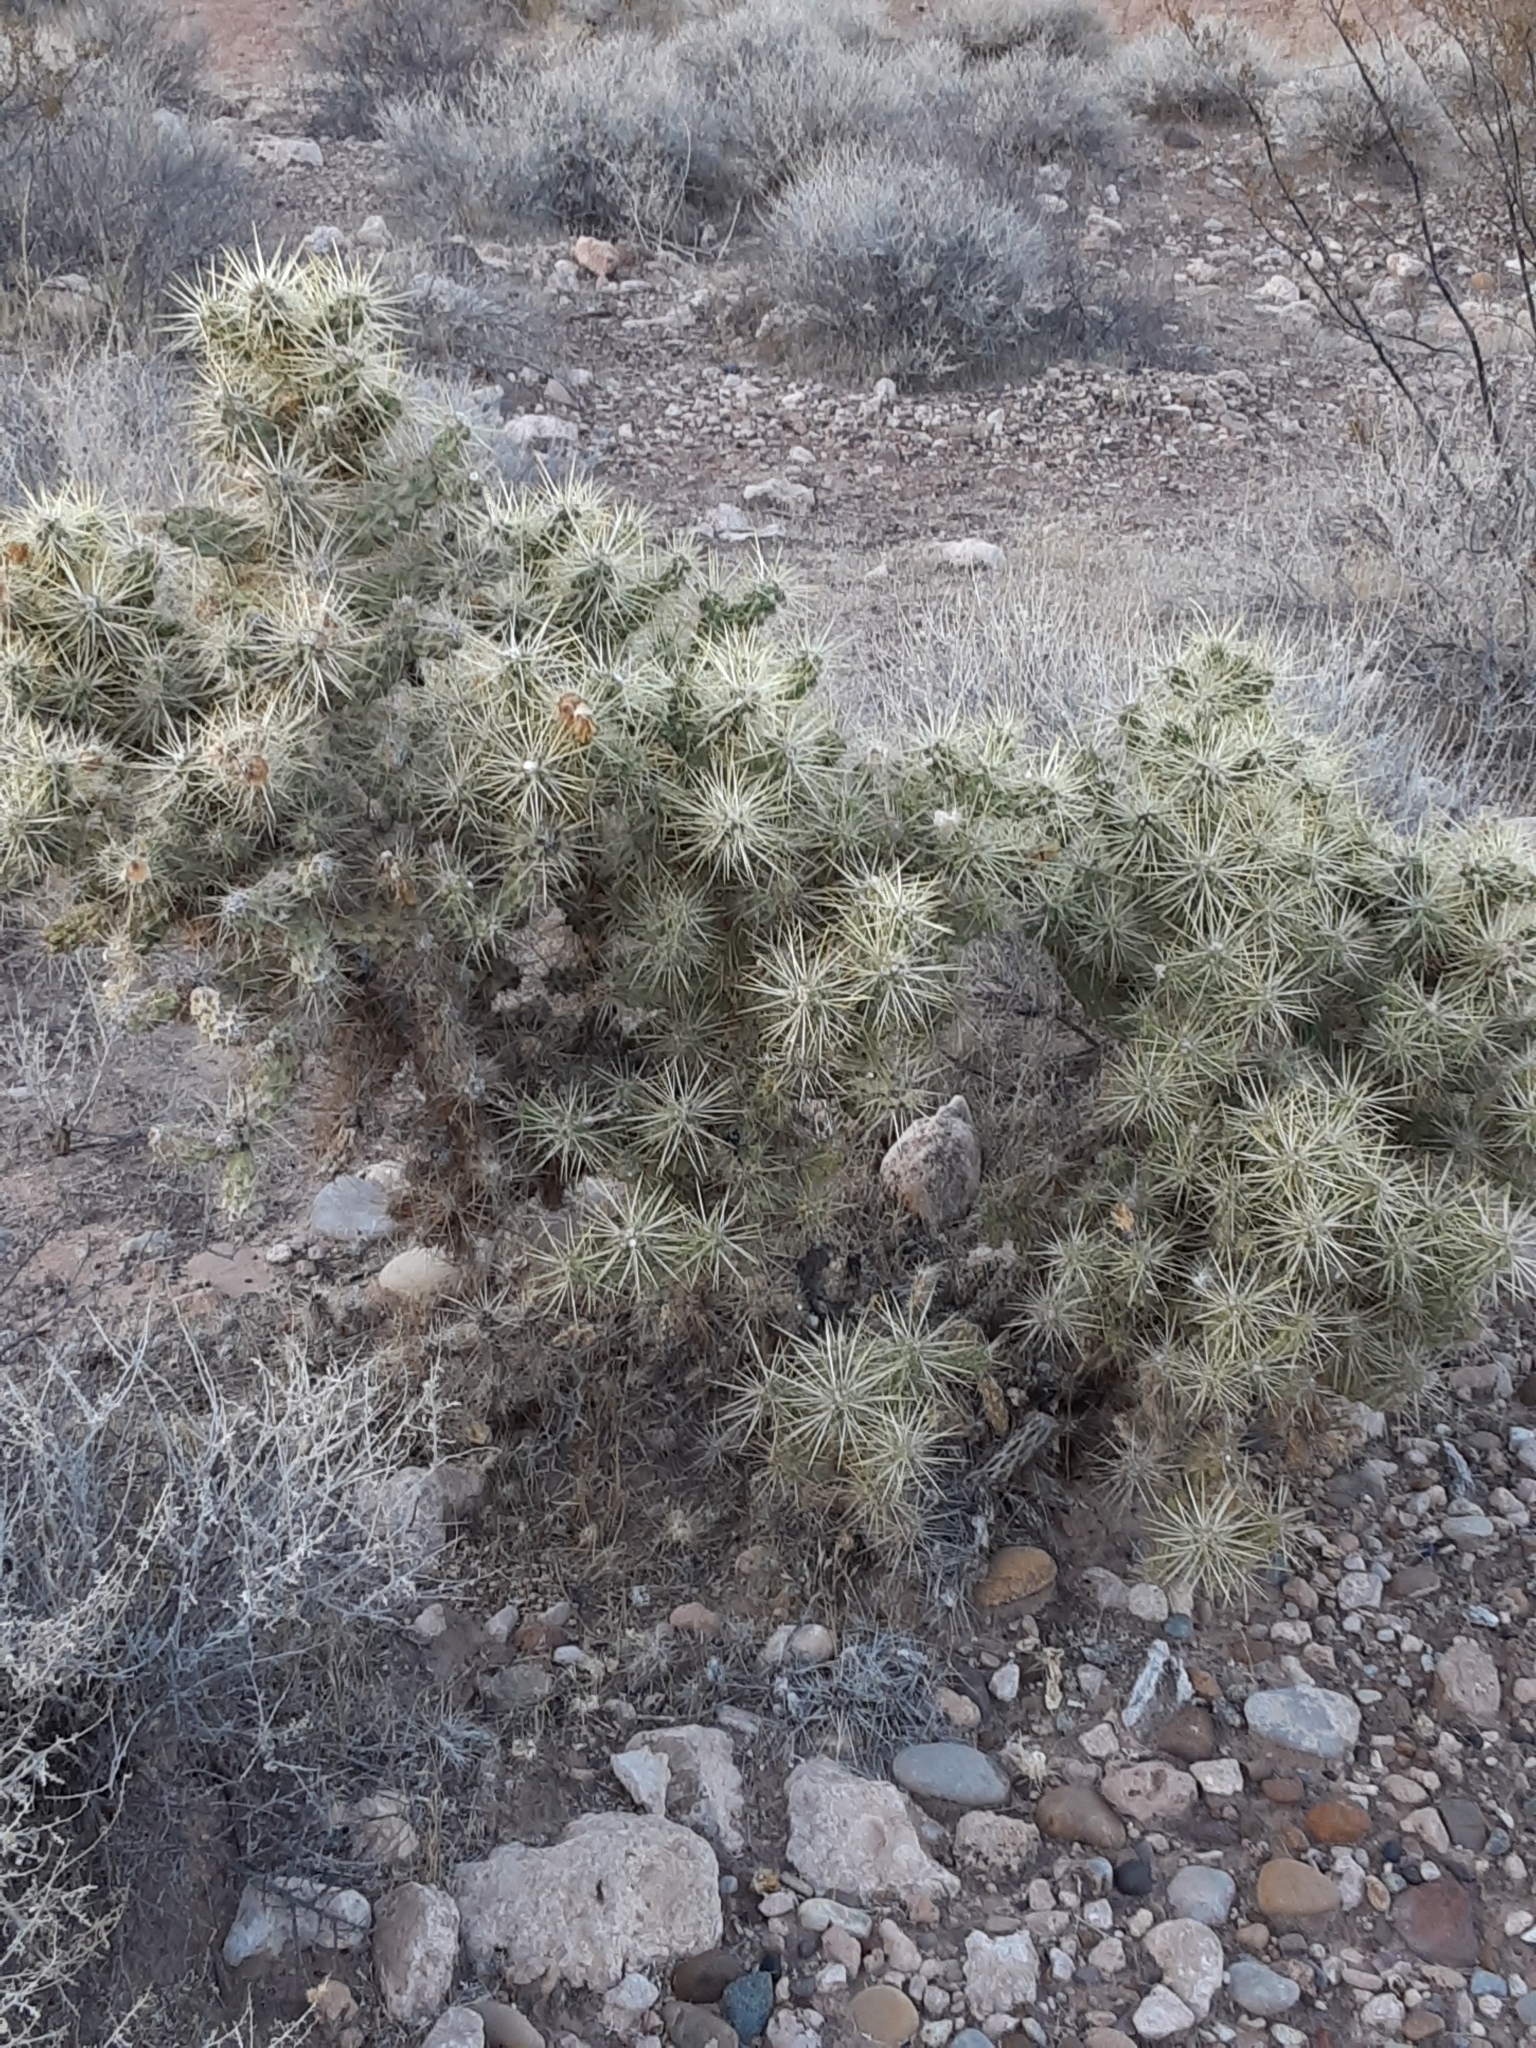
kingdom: Plantae
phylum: Tracheophyta
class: Magnoliopsida
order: Caryophyllales
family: Cactaceae
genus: Cylindropuntia
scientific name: Cylindropuntia echinocarpa
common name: Ground cholla
